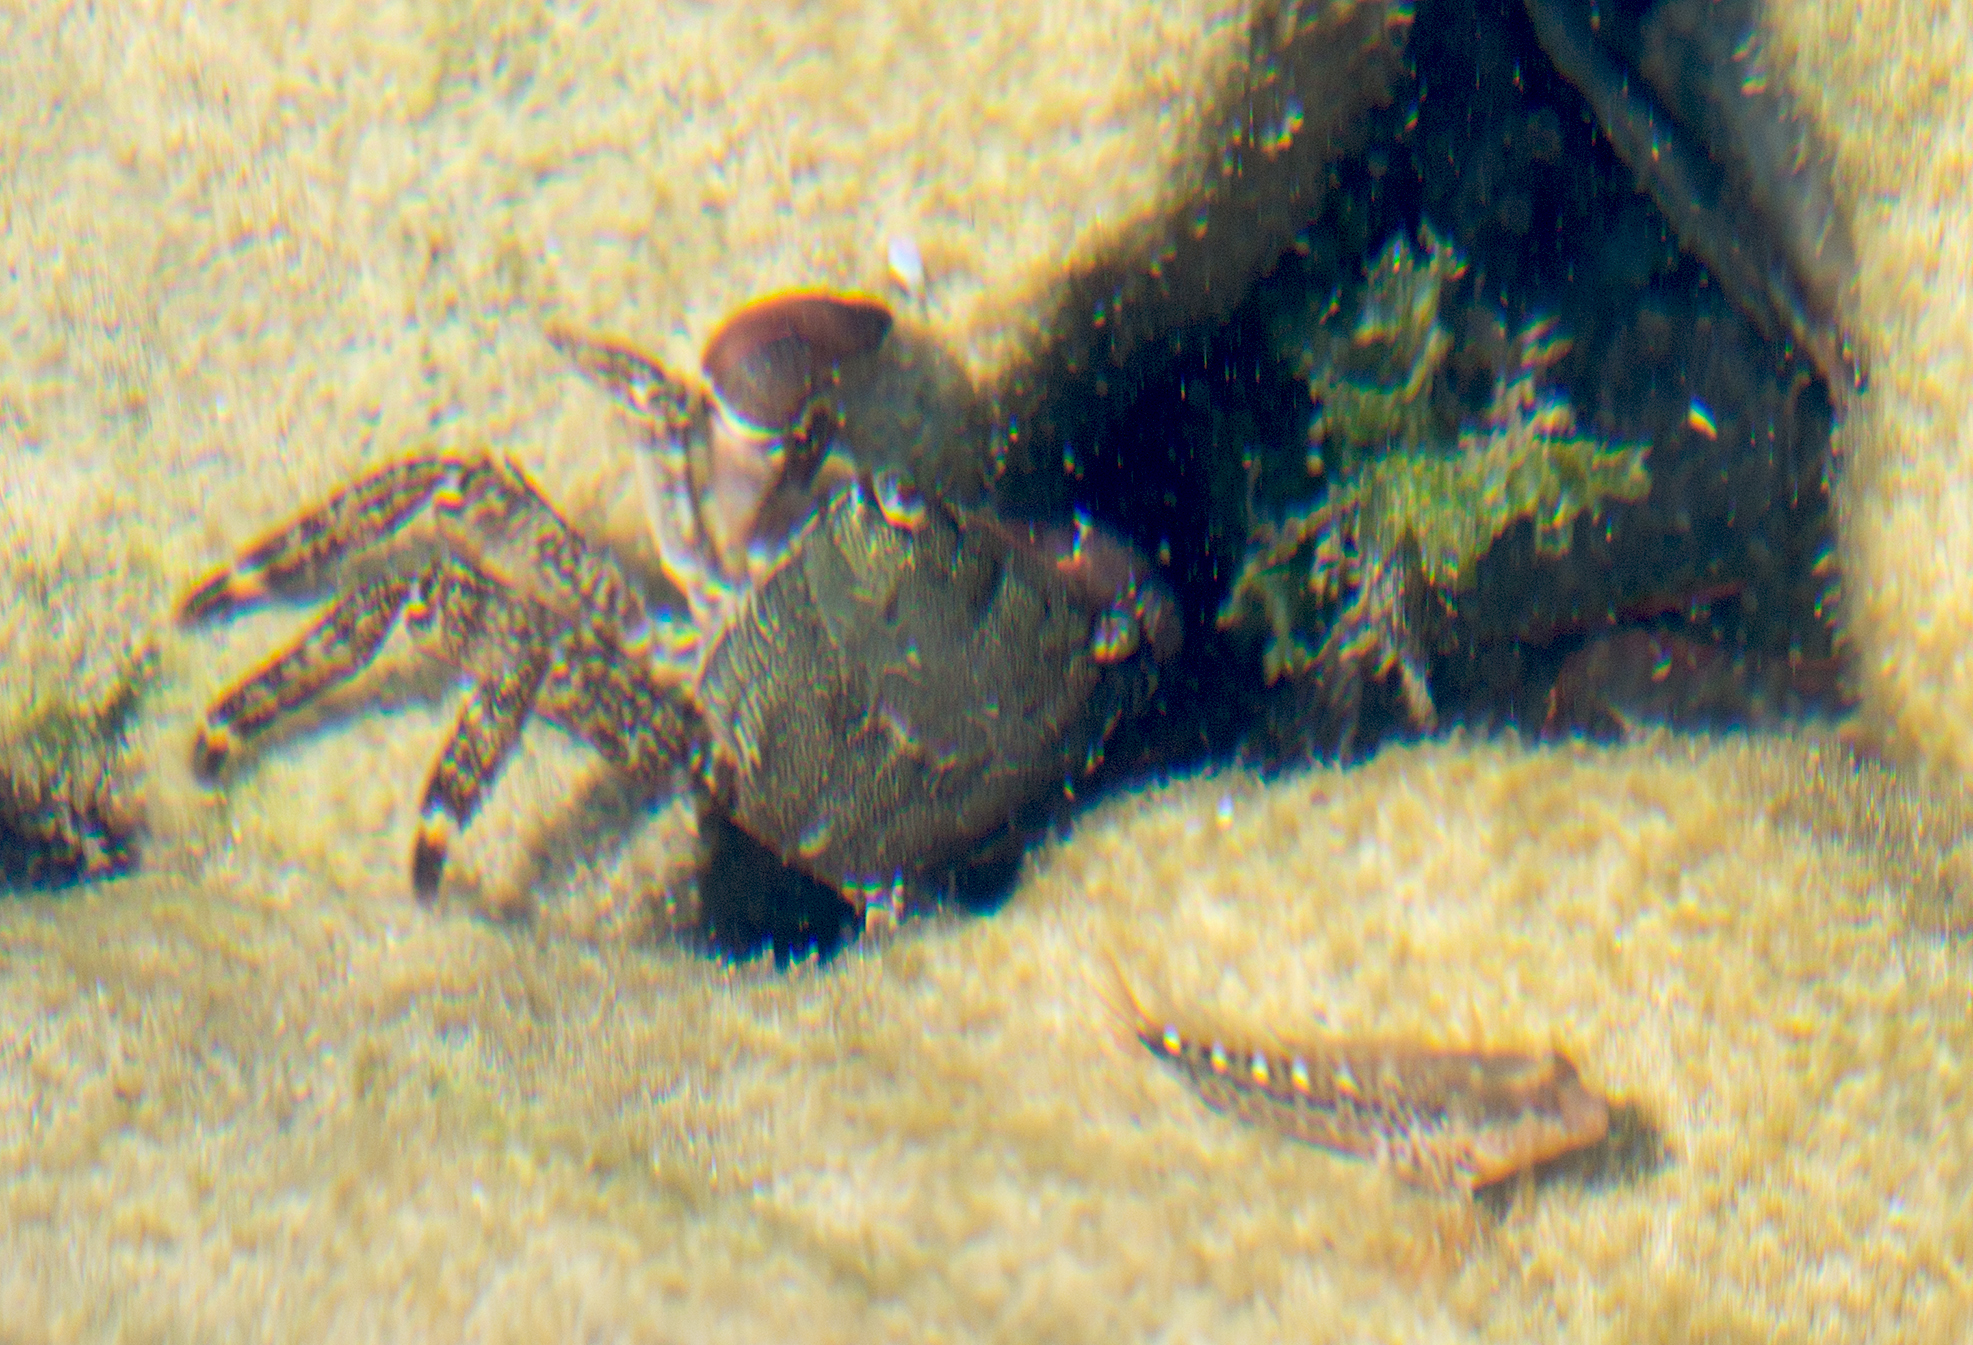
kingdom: Animalia
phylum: Arthropoda
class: Malacostraca
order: Decapoda
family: Grapsidae
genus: Pachygrapsus
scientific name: Pachygrapsus marmoratus
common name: Marbled rock crab
